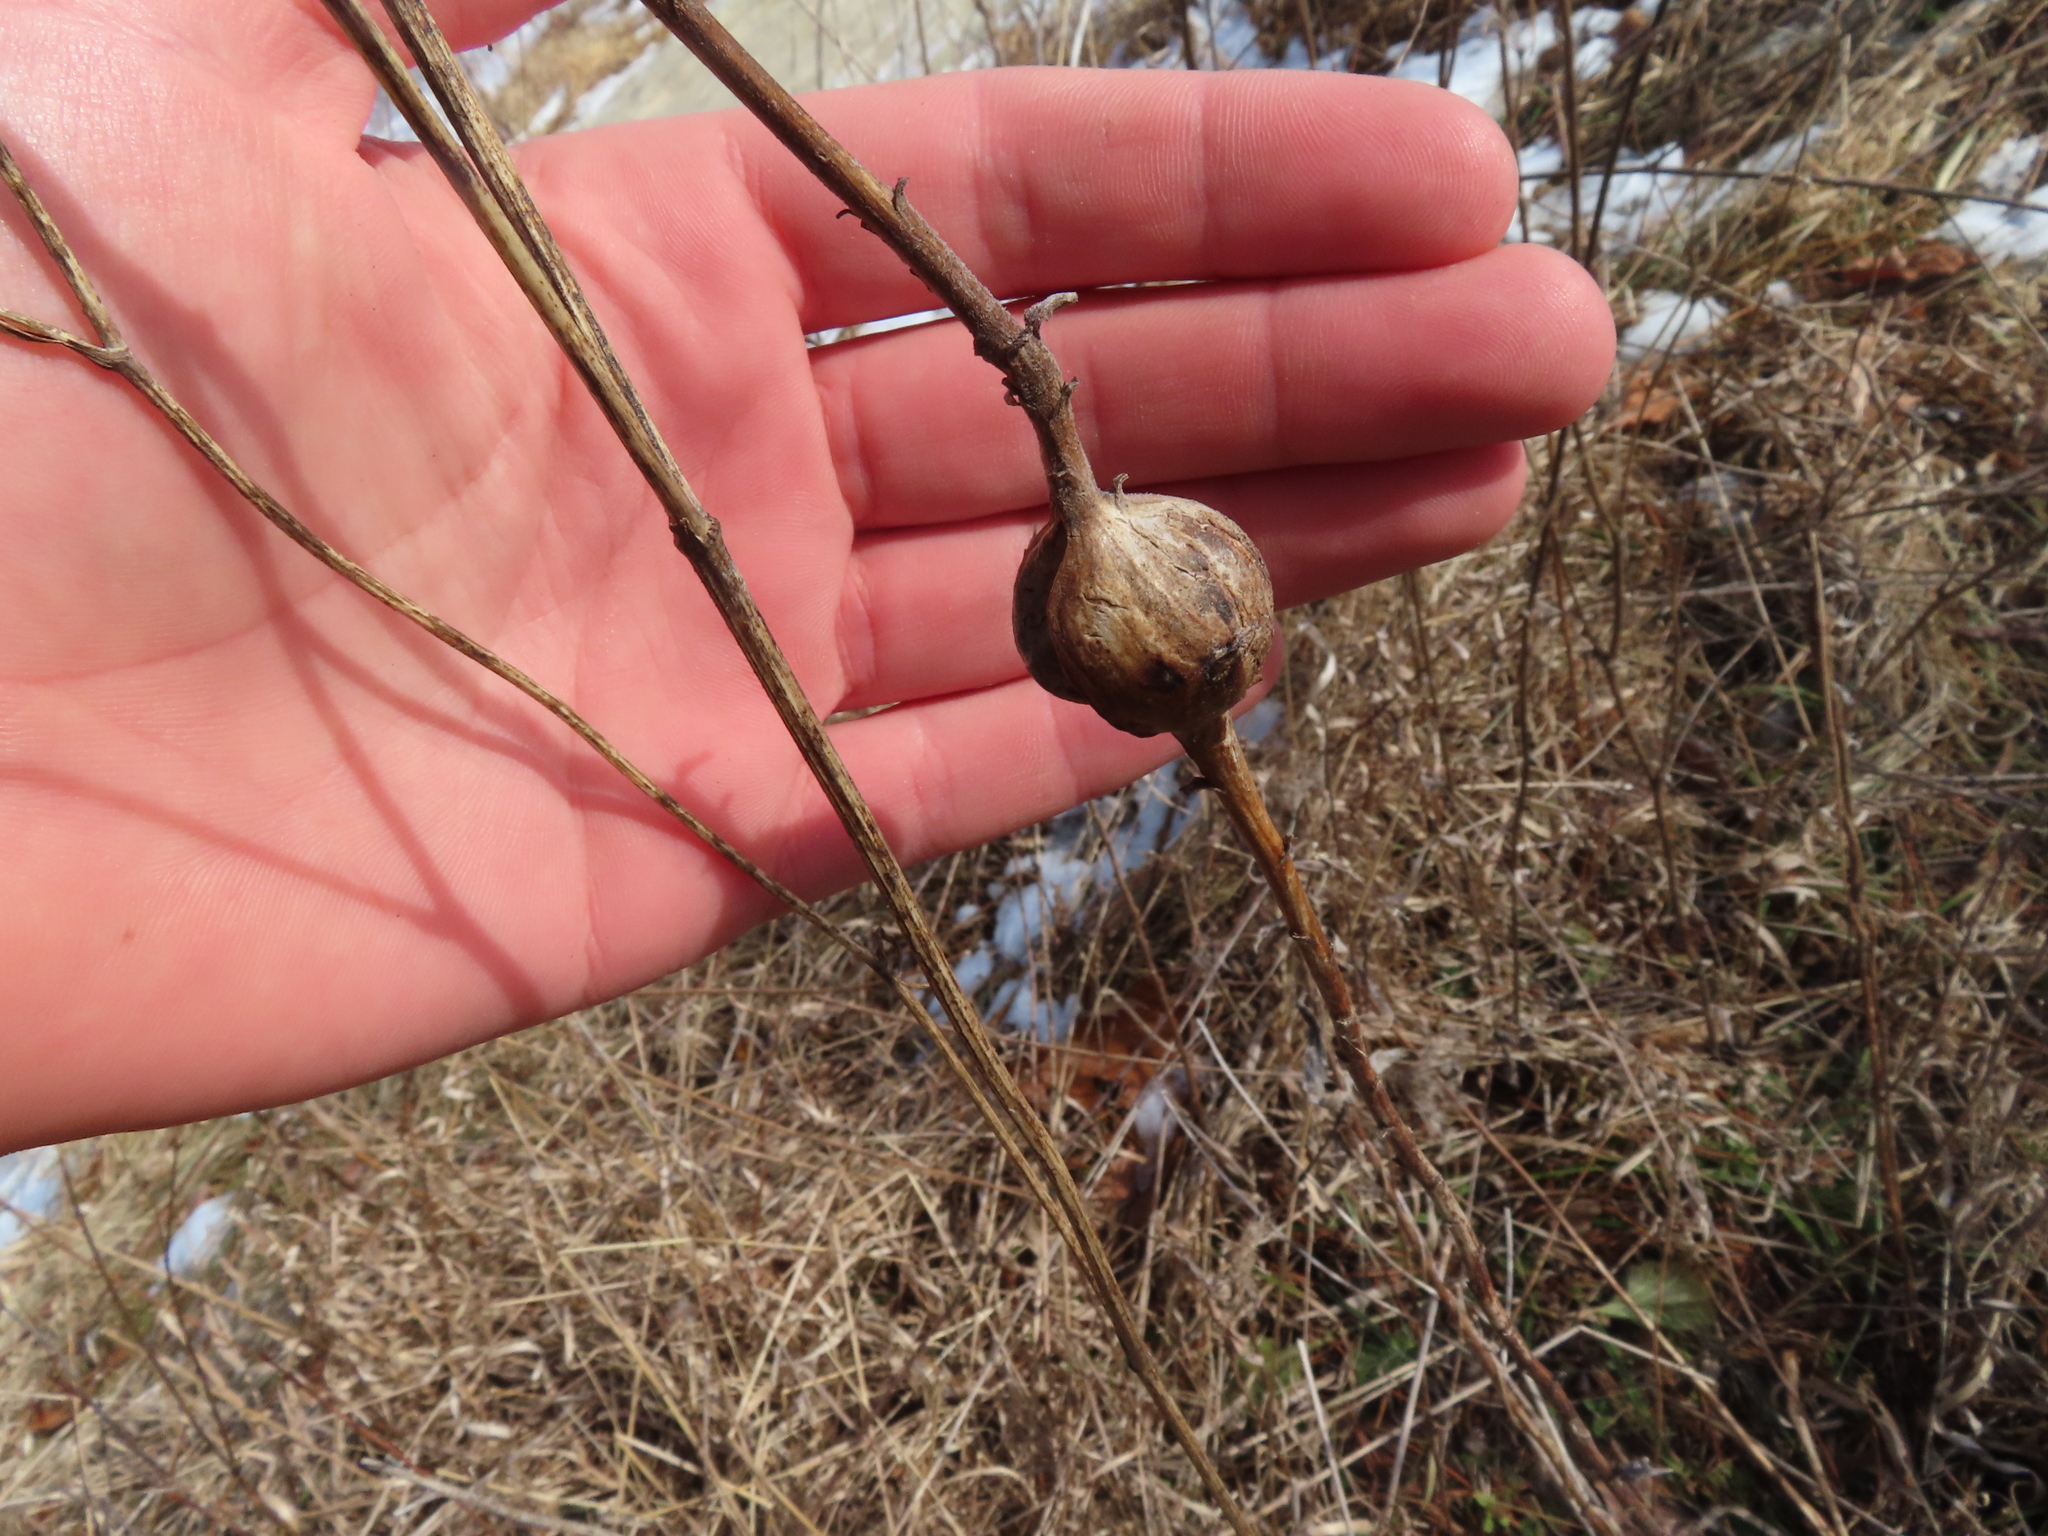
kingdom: Animalia
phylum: Arthropoda
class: Insecta
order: Diptera
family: Tephritidae
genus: Eurosta
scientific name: Eurosta solidaginis
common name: Goldenrod gall fly
